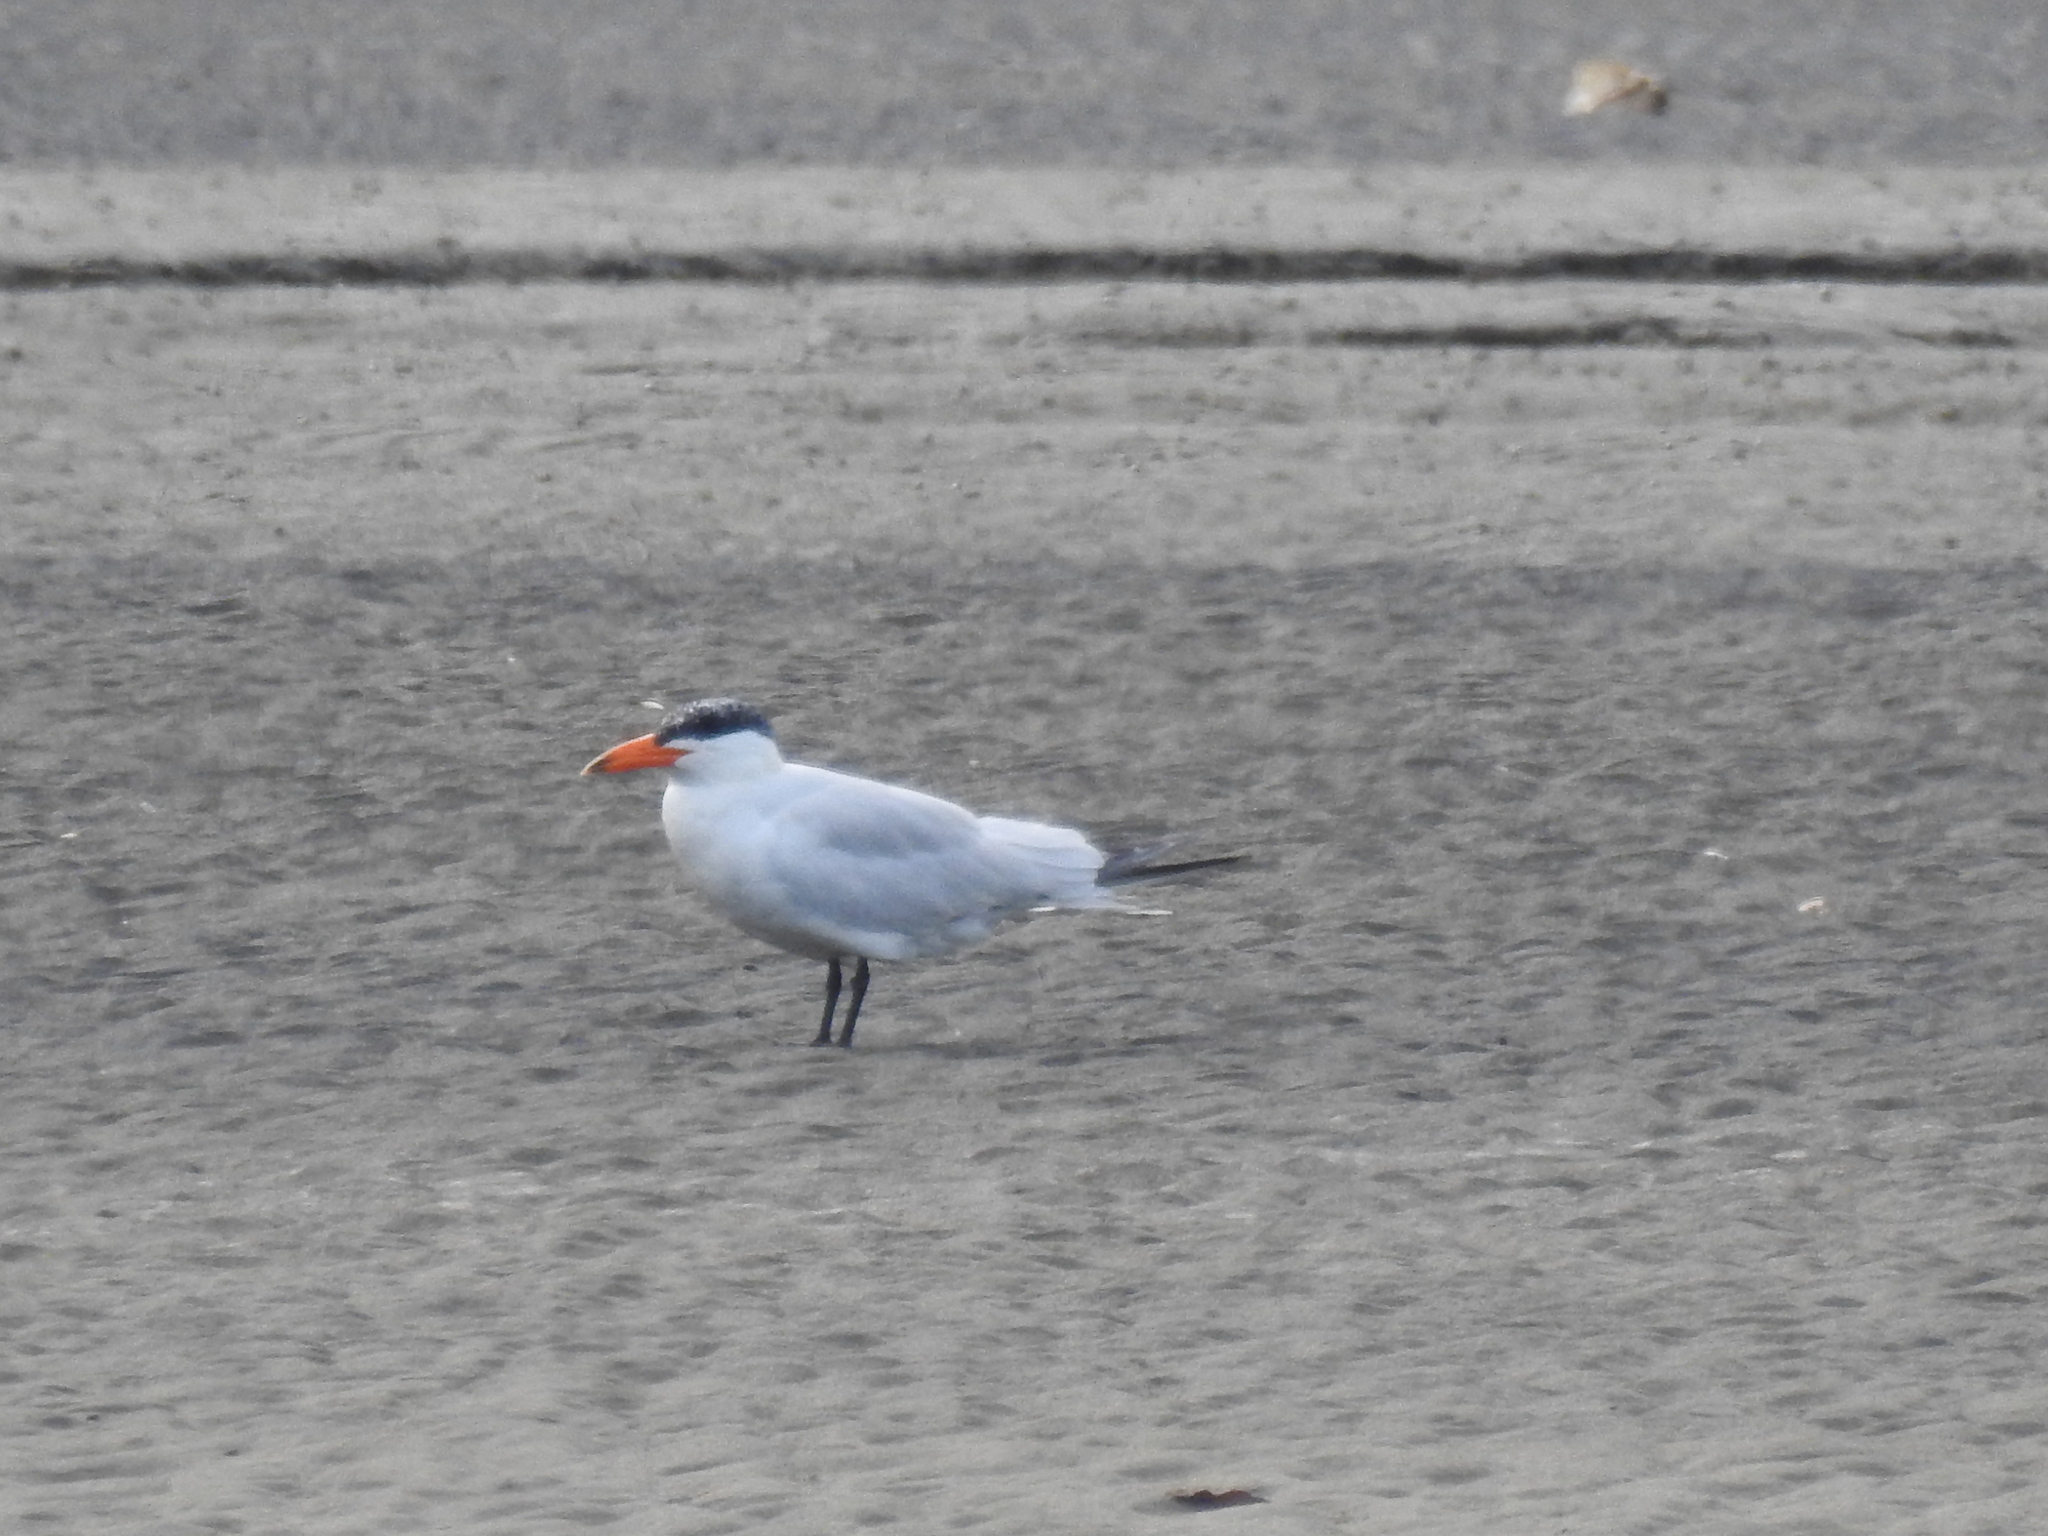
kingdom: Animalia
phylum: Chordata
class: Aves
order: Charadriiformes
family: Laridae
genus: Hydroprogne
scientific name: Hydroprogne caspia
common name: Caspian tern
